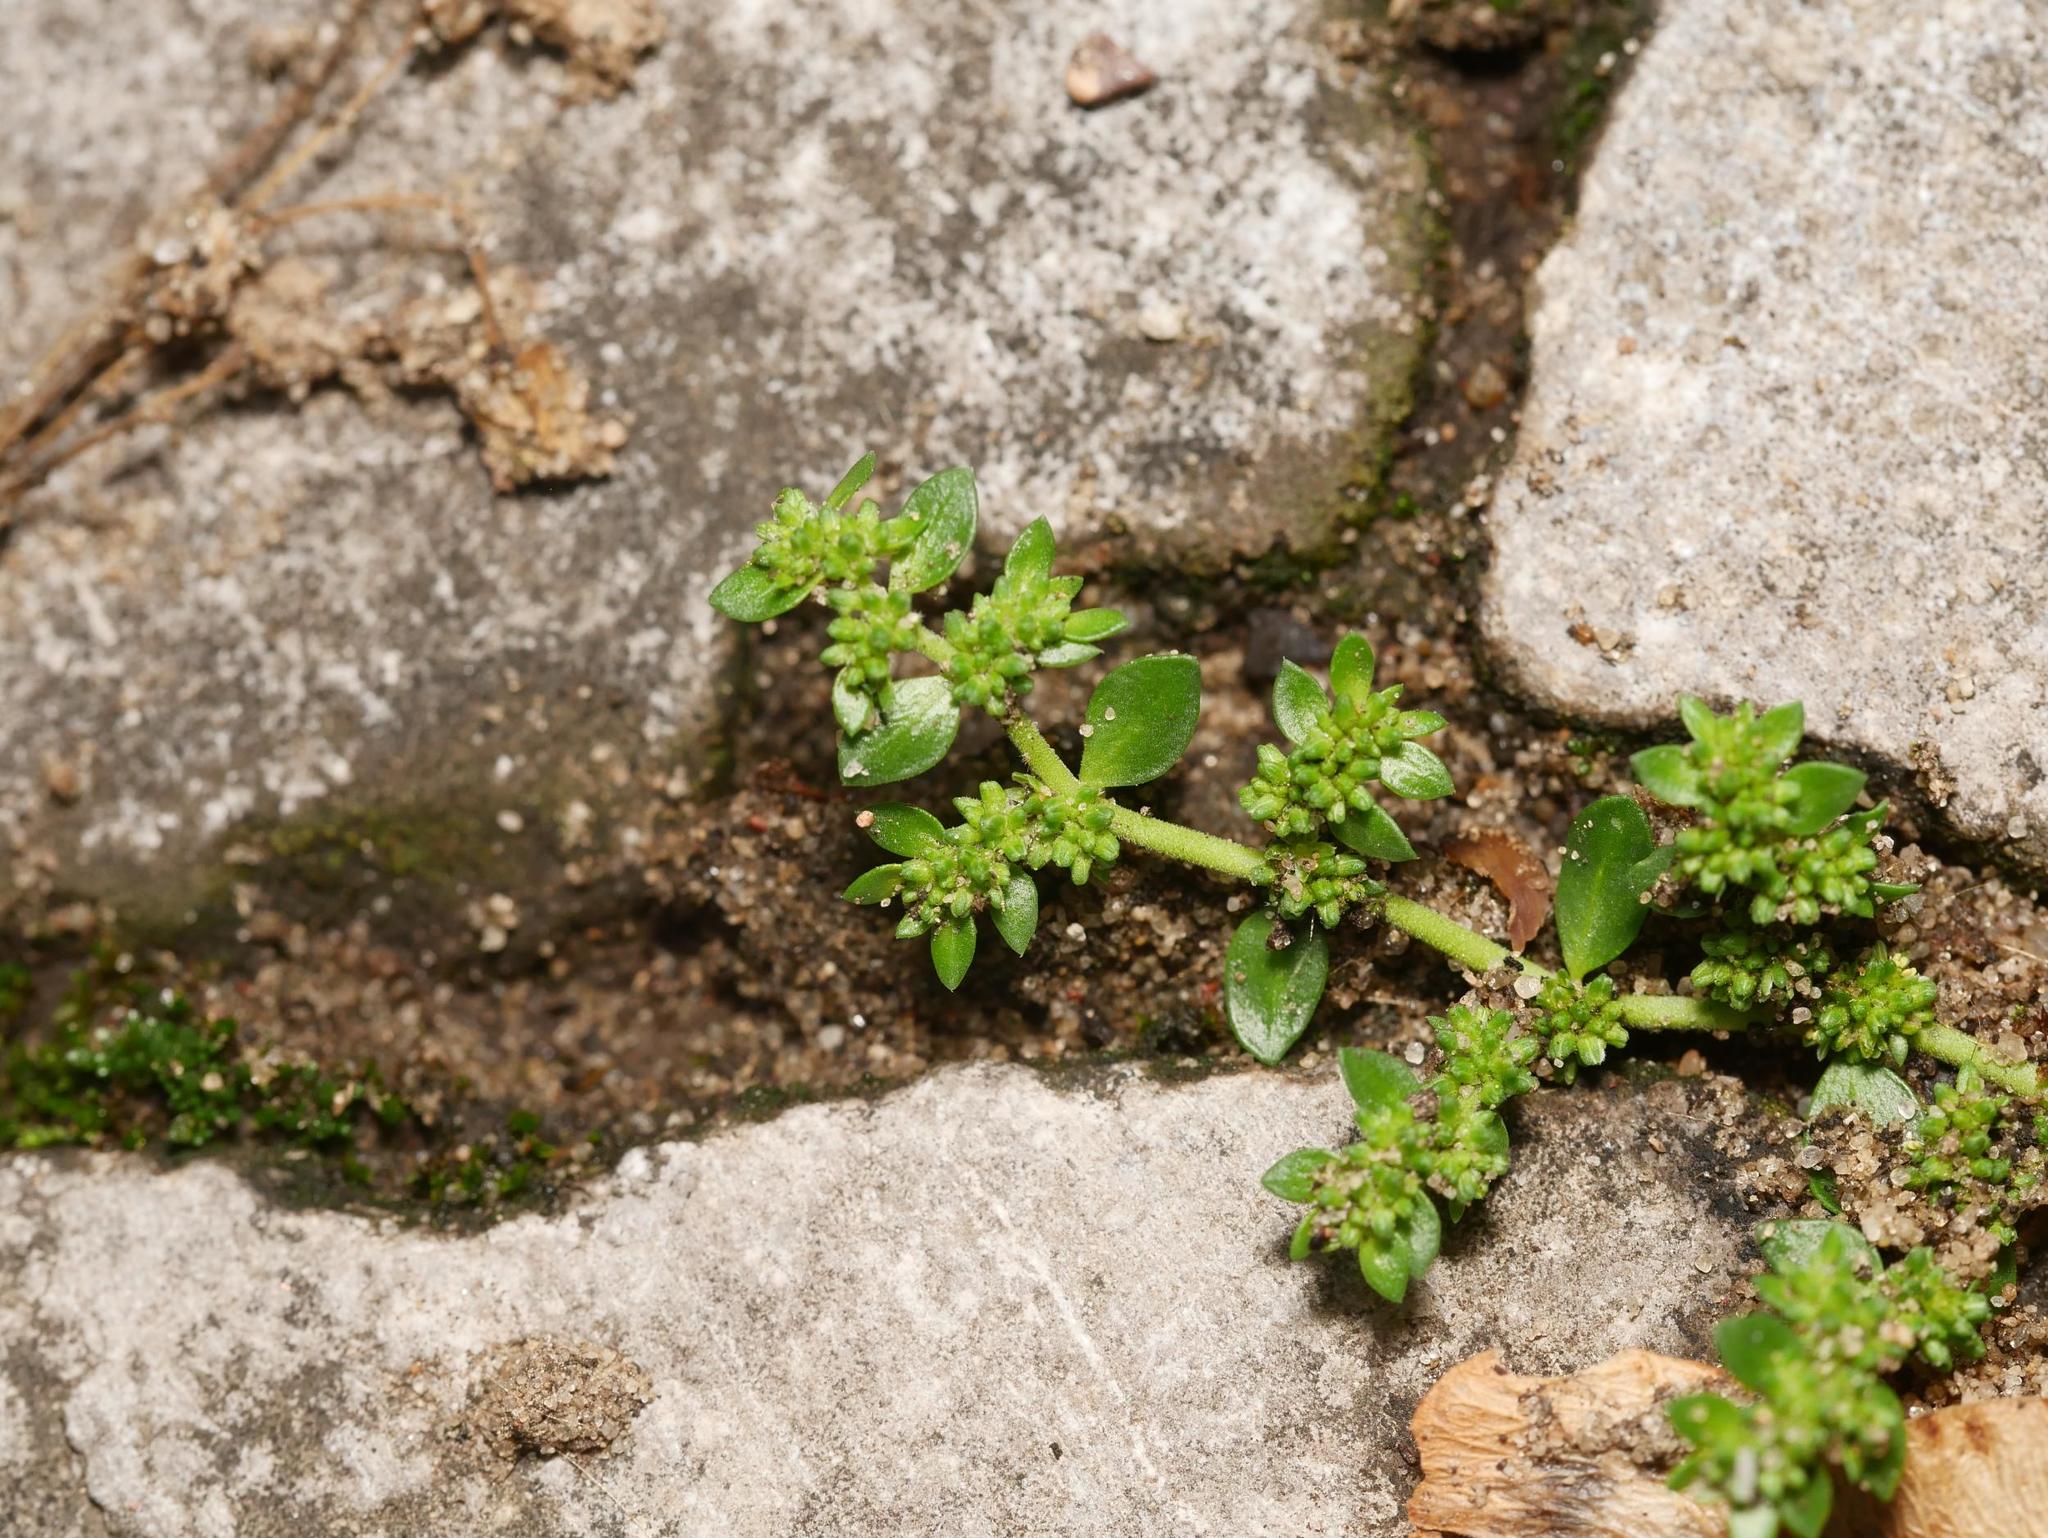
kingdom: Plantae
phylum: Tracheophyta
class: Magnoliopsida
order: Caryophyllales
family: Caryophyllaceae
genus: Herniaria
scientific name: Herniaria glabra
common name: Smooth rupturewort
